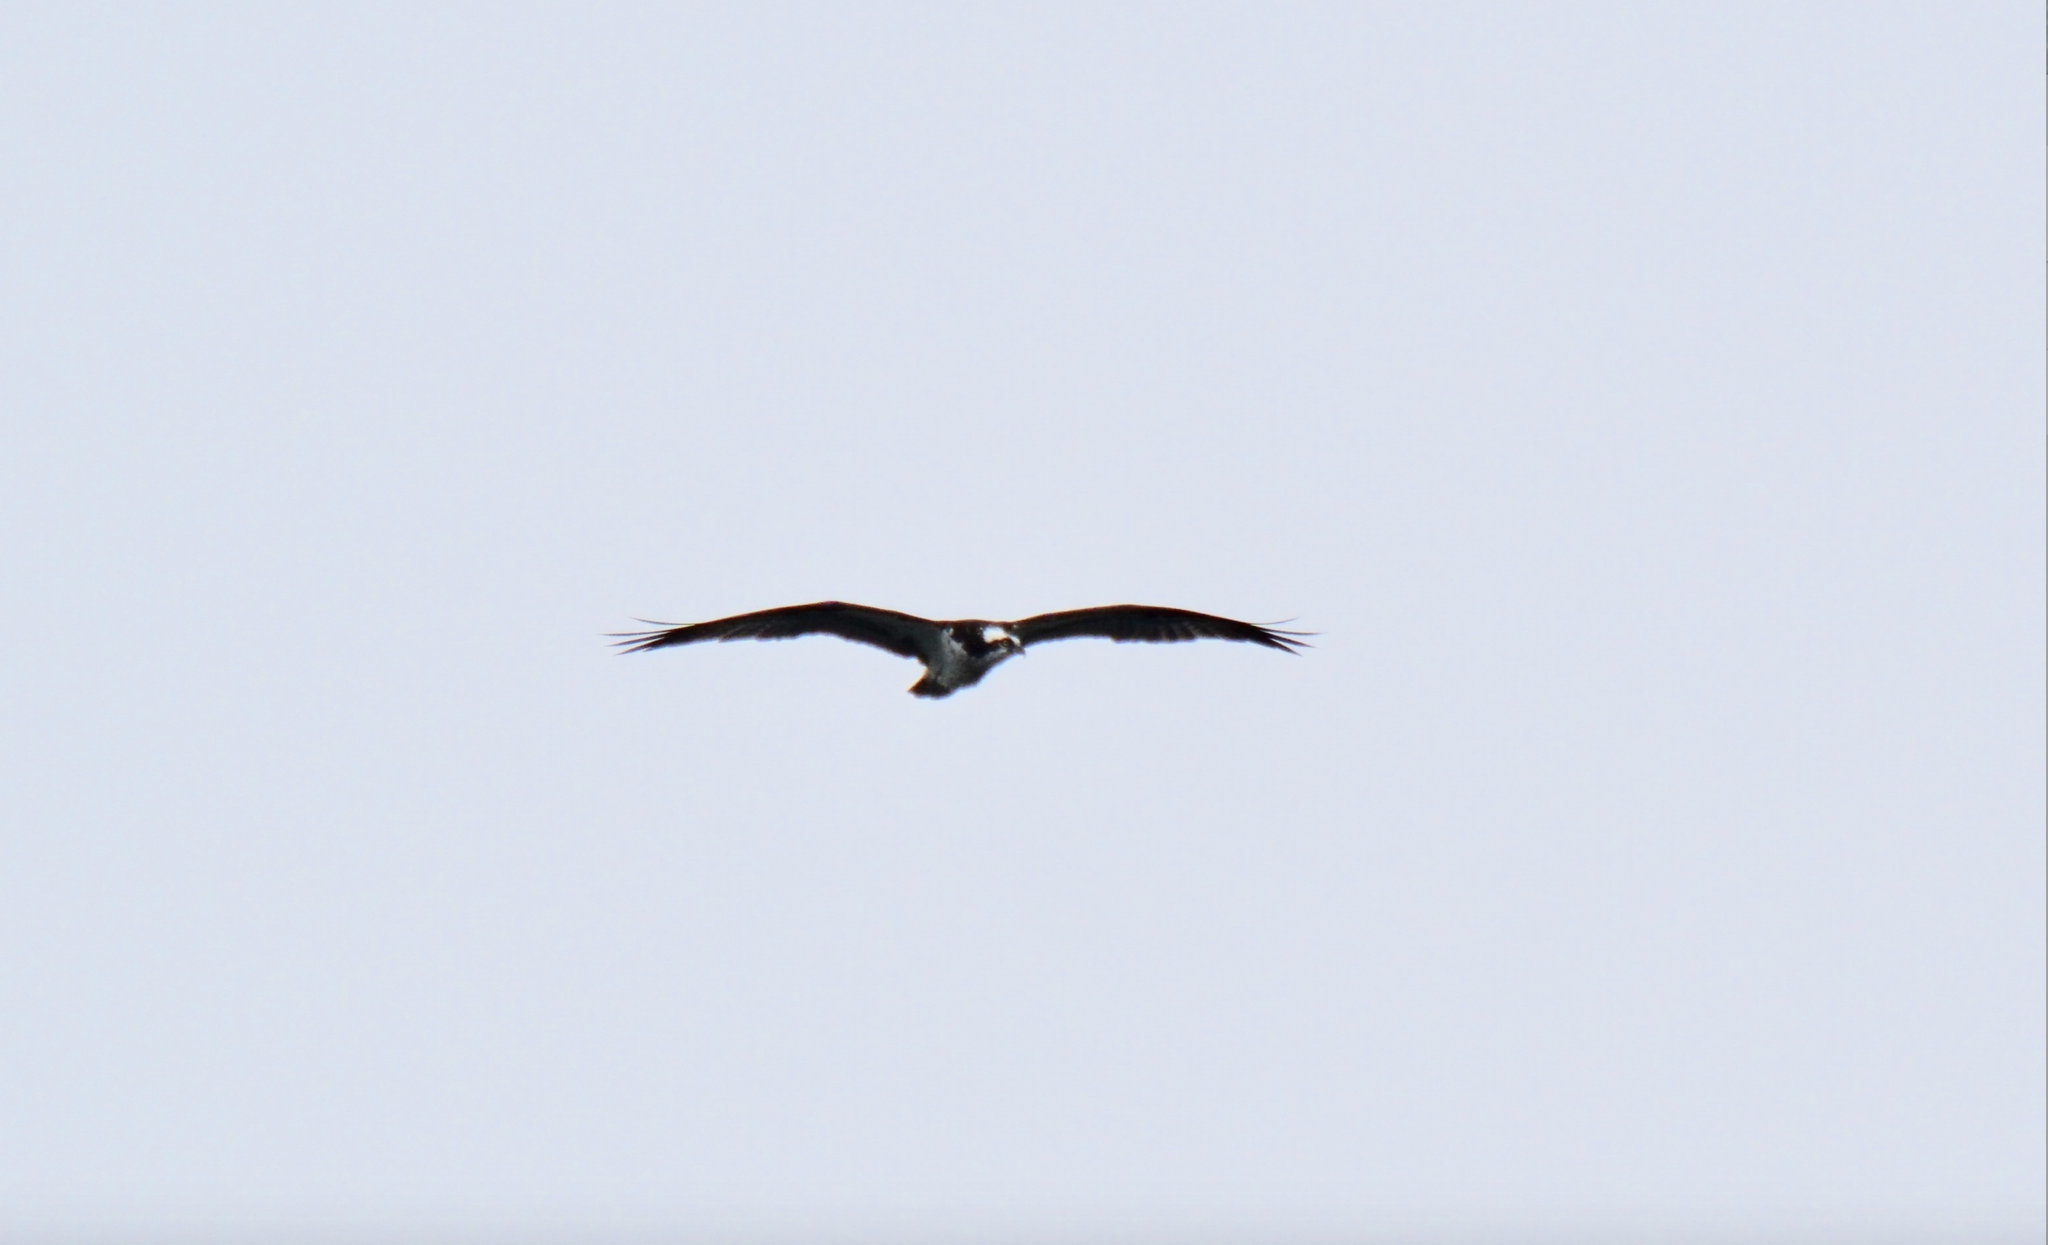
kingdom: Animalia
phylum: Chordata
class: Aves
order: Accipitriformes
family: Pandionidae
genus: Pandion
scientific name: Pandion haliaetus
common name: Osprey
